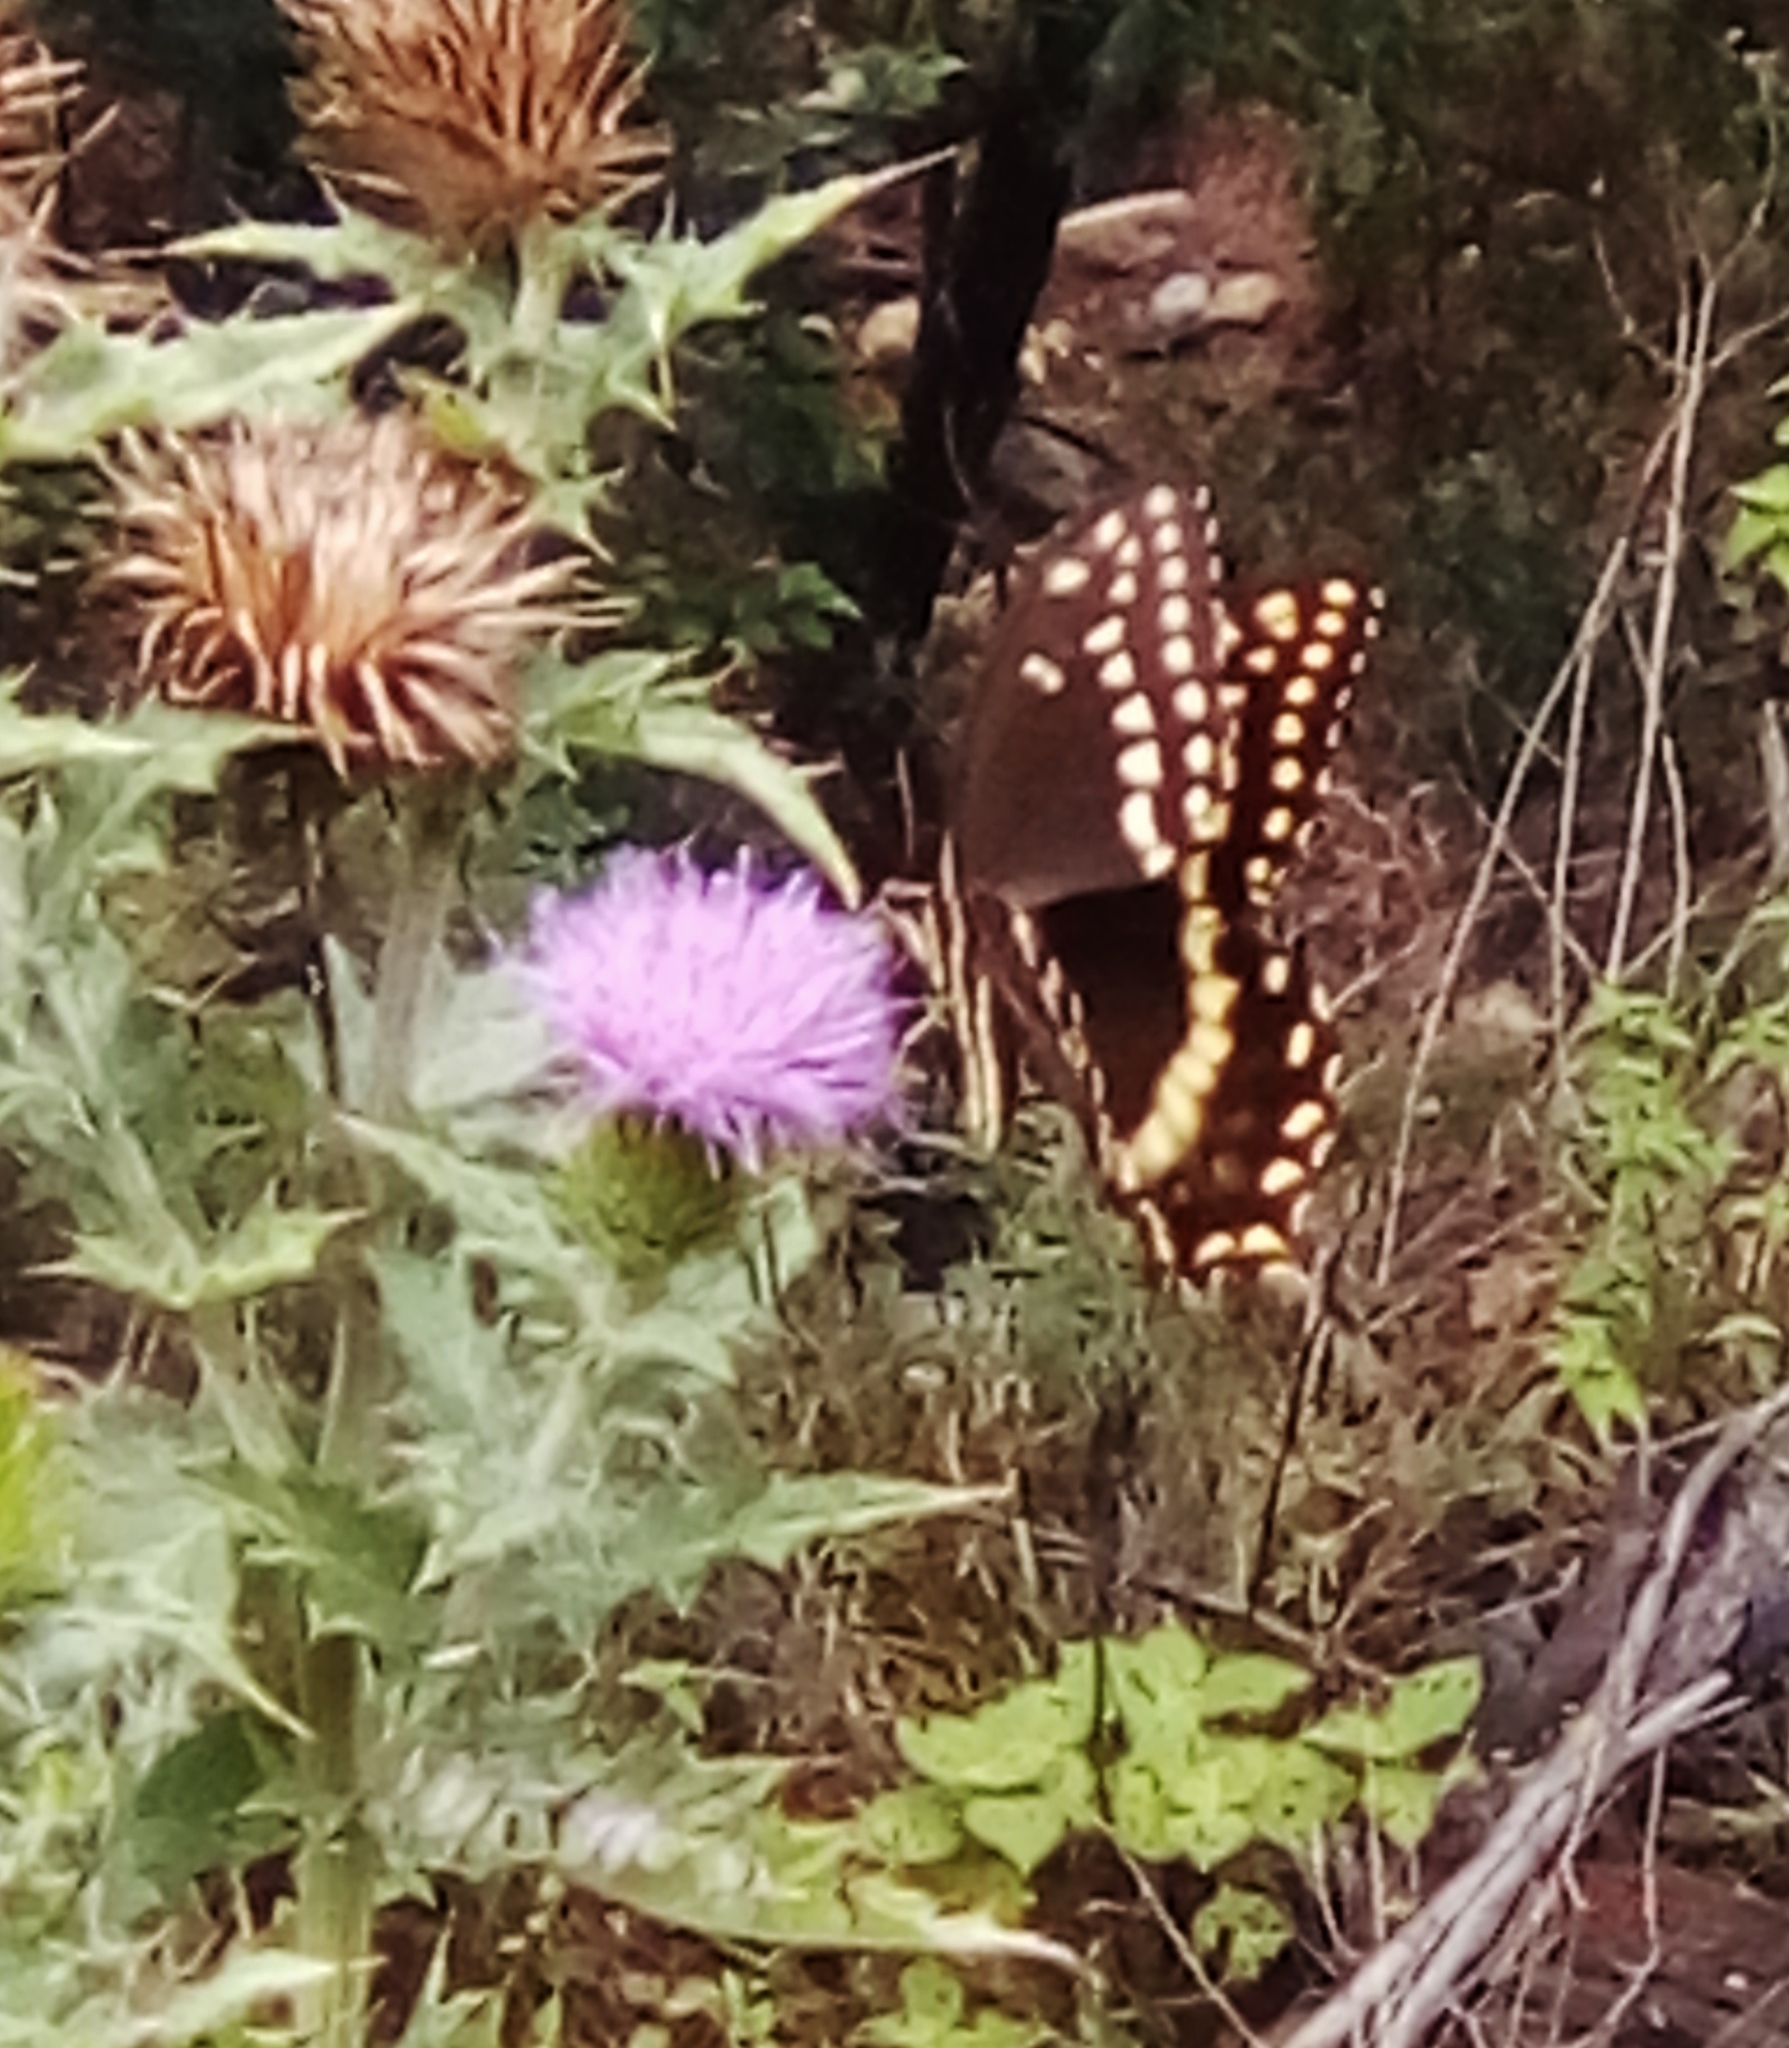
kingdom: Animalia
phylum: Arthropoda
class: Insecta
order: Lepidoptera
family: Papilionidae
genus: Papilio
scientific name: Papilio palamedes
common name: Palamedes swallowtail
